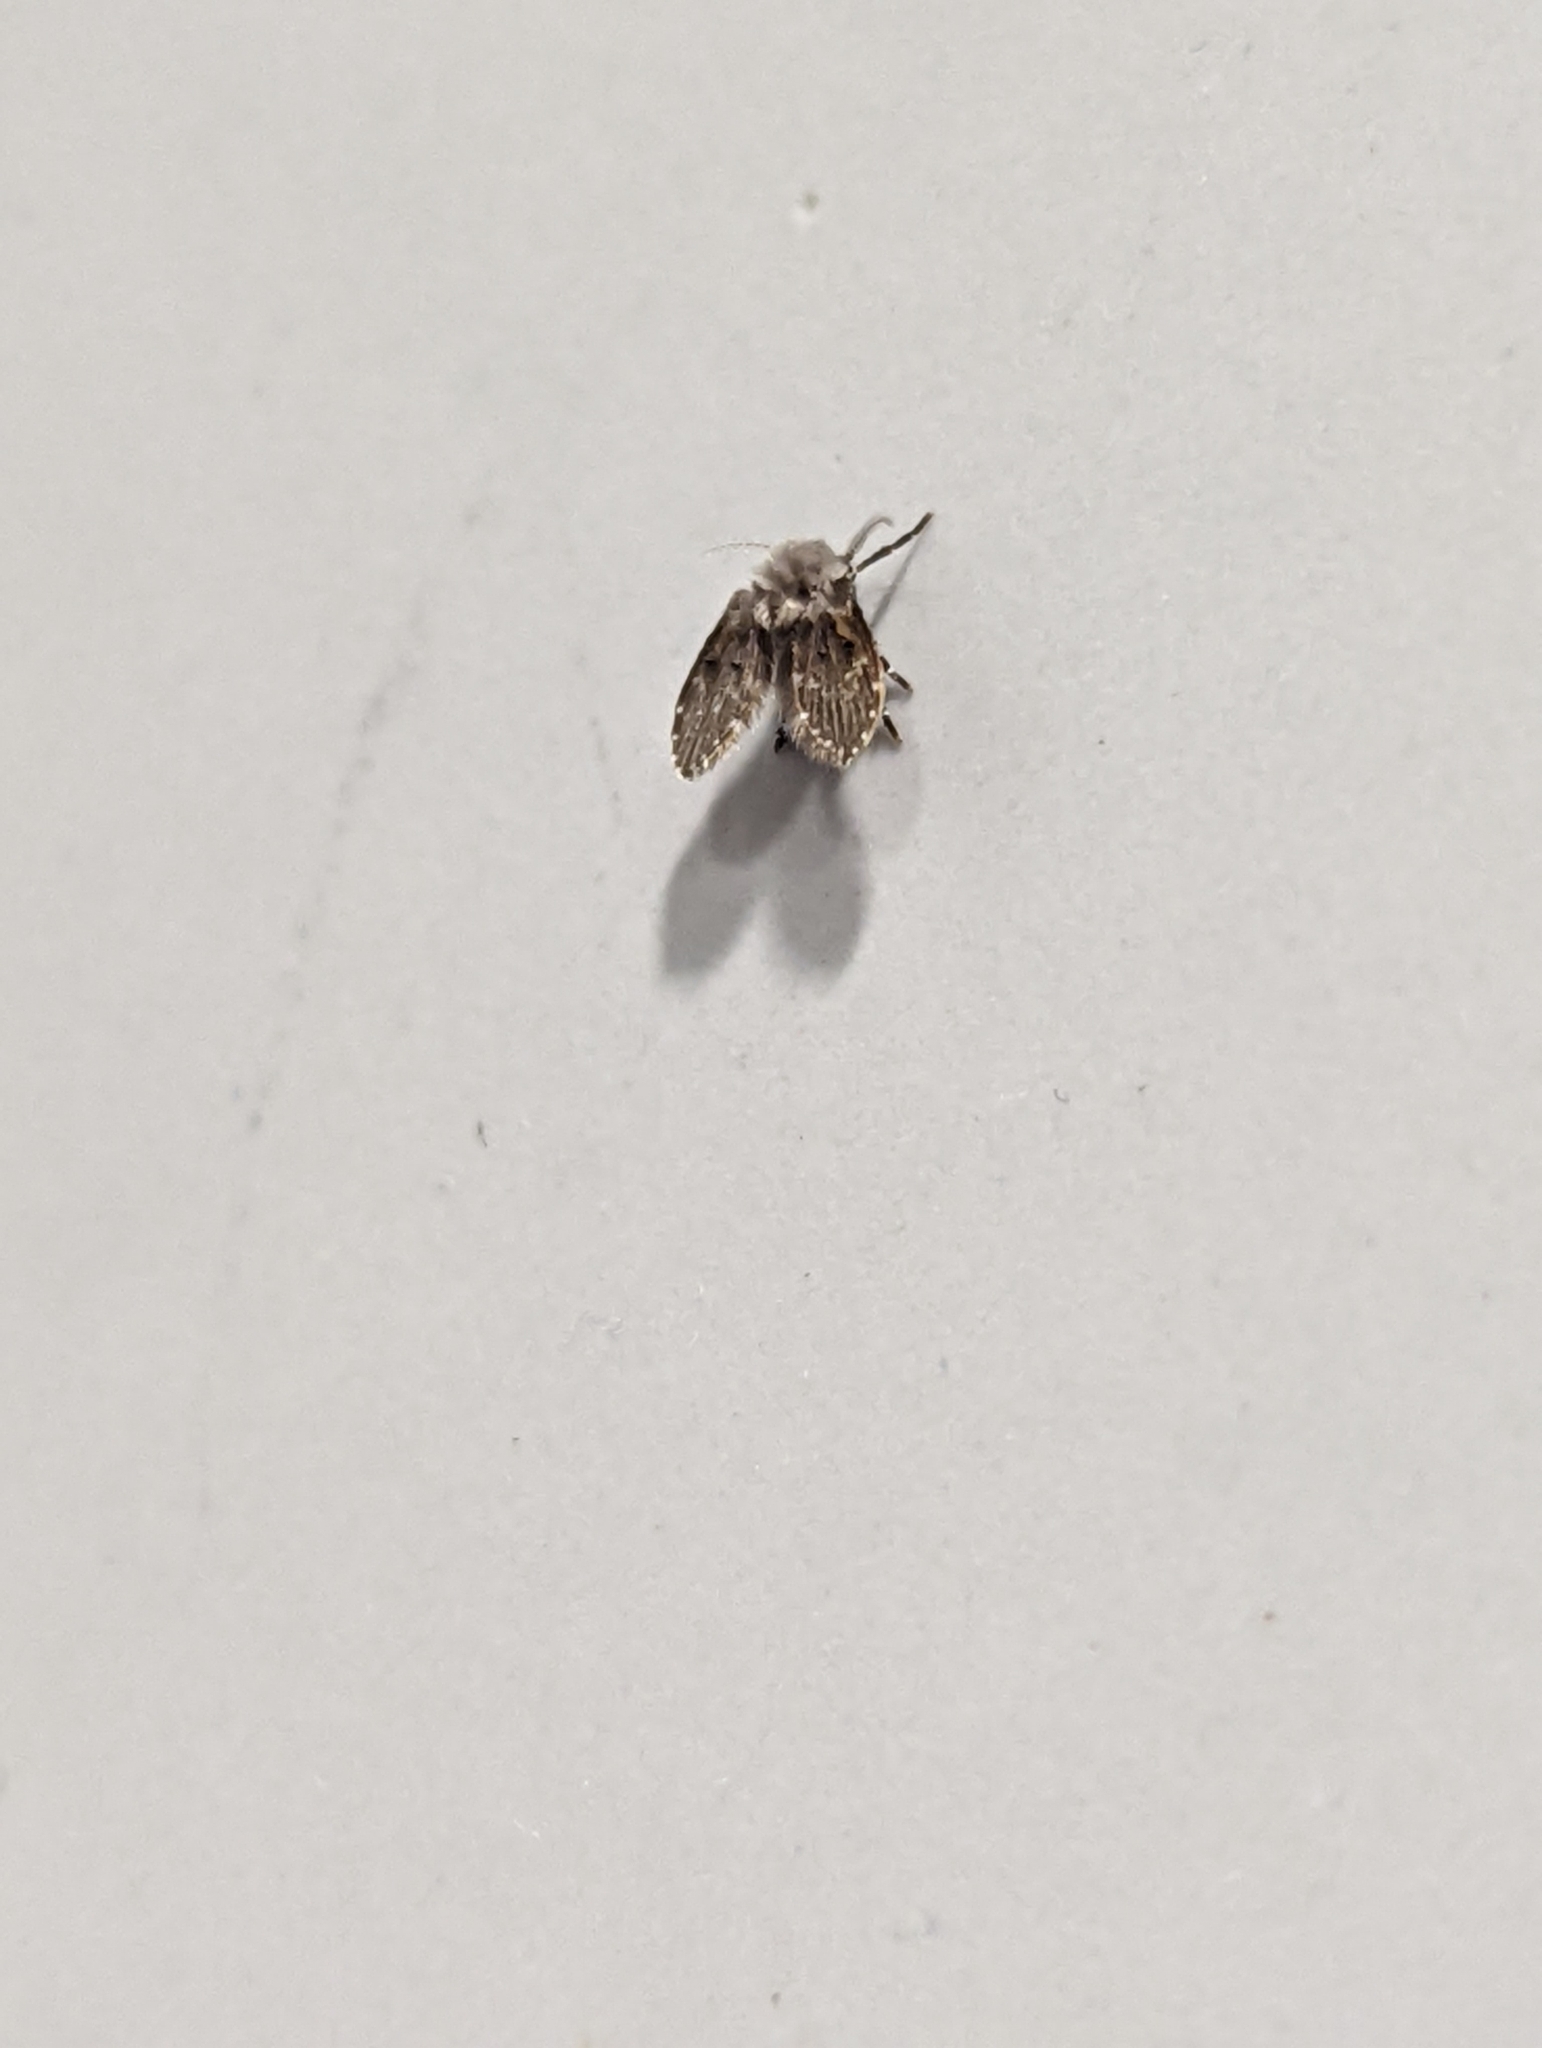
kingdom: Animalia
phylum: Arthropoda
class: Insecta
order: Diptera
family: Psychodidae
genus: Clogmia
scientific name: Clogmia albipunctatus
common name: White-spotted moth fly
